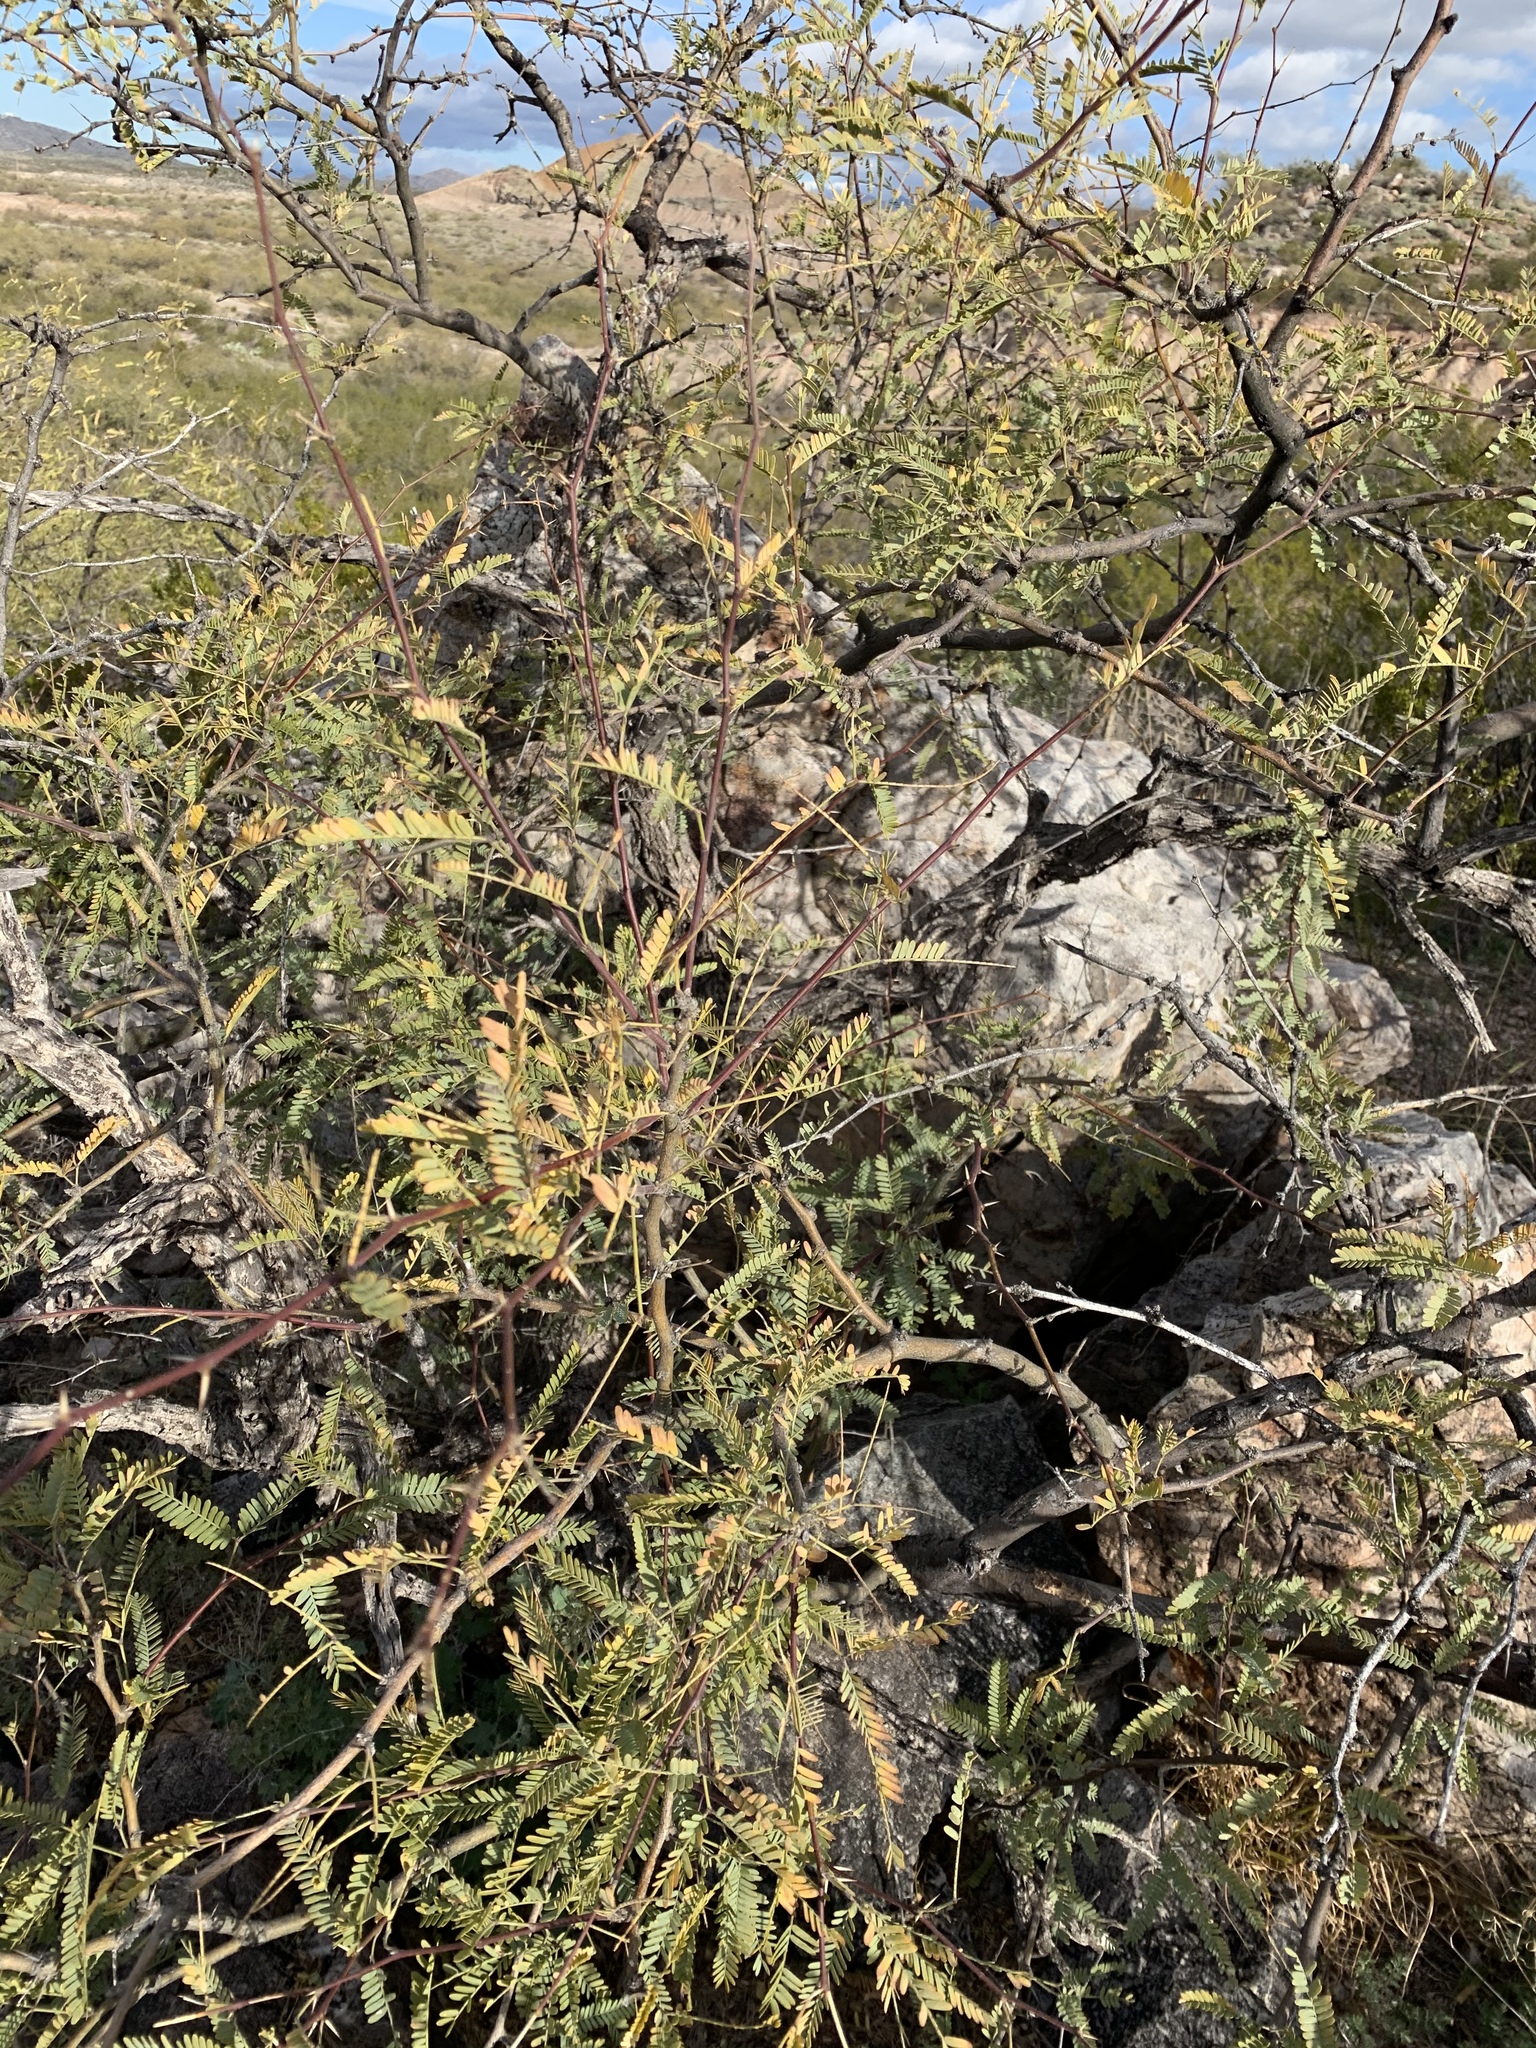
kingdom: Plantae
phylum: Tracheophyta
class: Magnoliopsida
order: Fabales
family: Fabaceae
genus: Prosopis
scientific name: Prosopis velutina
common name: Velvet mesquite
